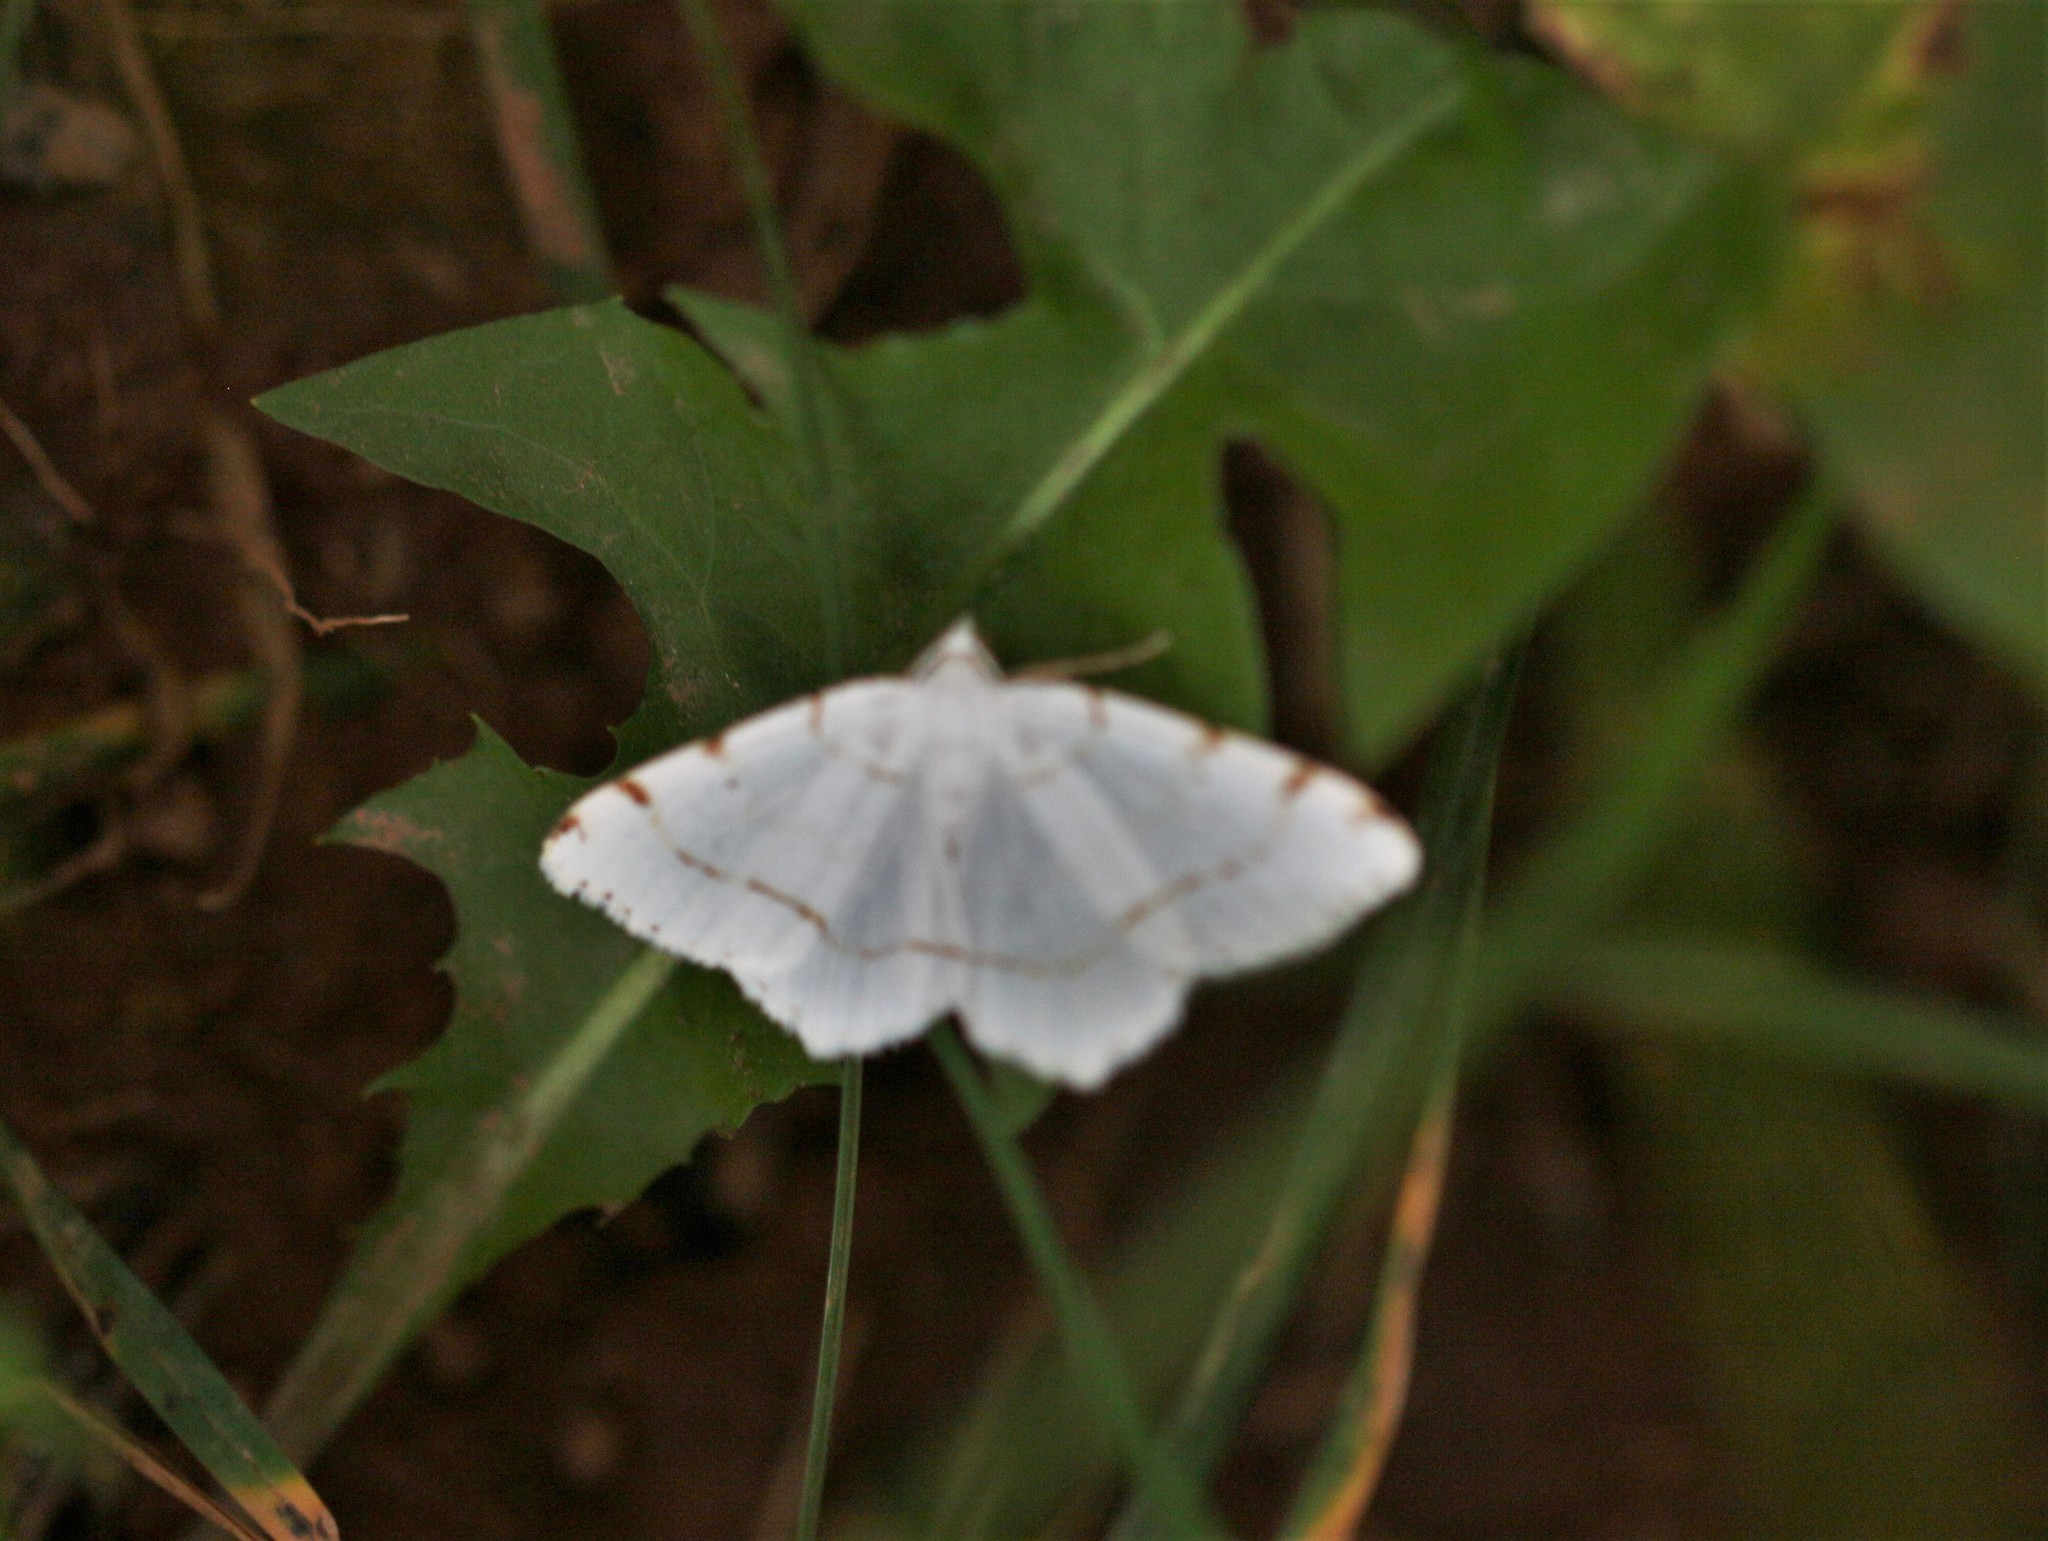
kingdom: Animalia
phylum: Arthropoda
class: Insecta
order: Lepidoptera
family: Geometridae
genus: Macaria
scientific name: Macaria pustularia
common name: Lesser maple spanworm moth
